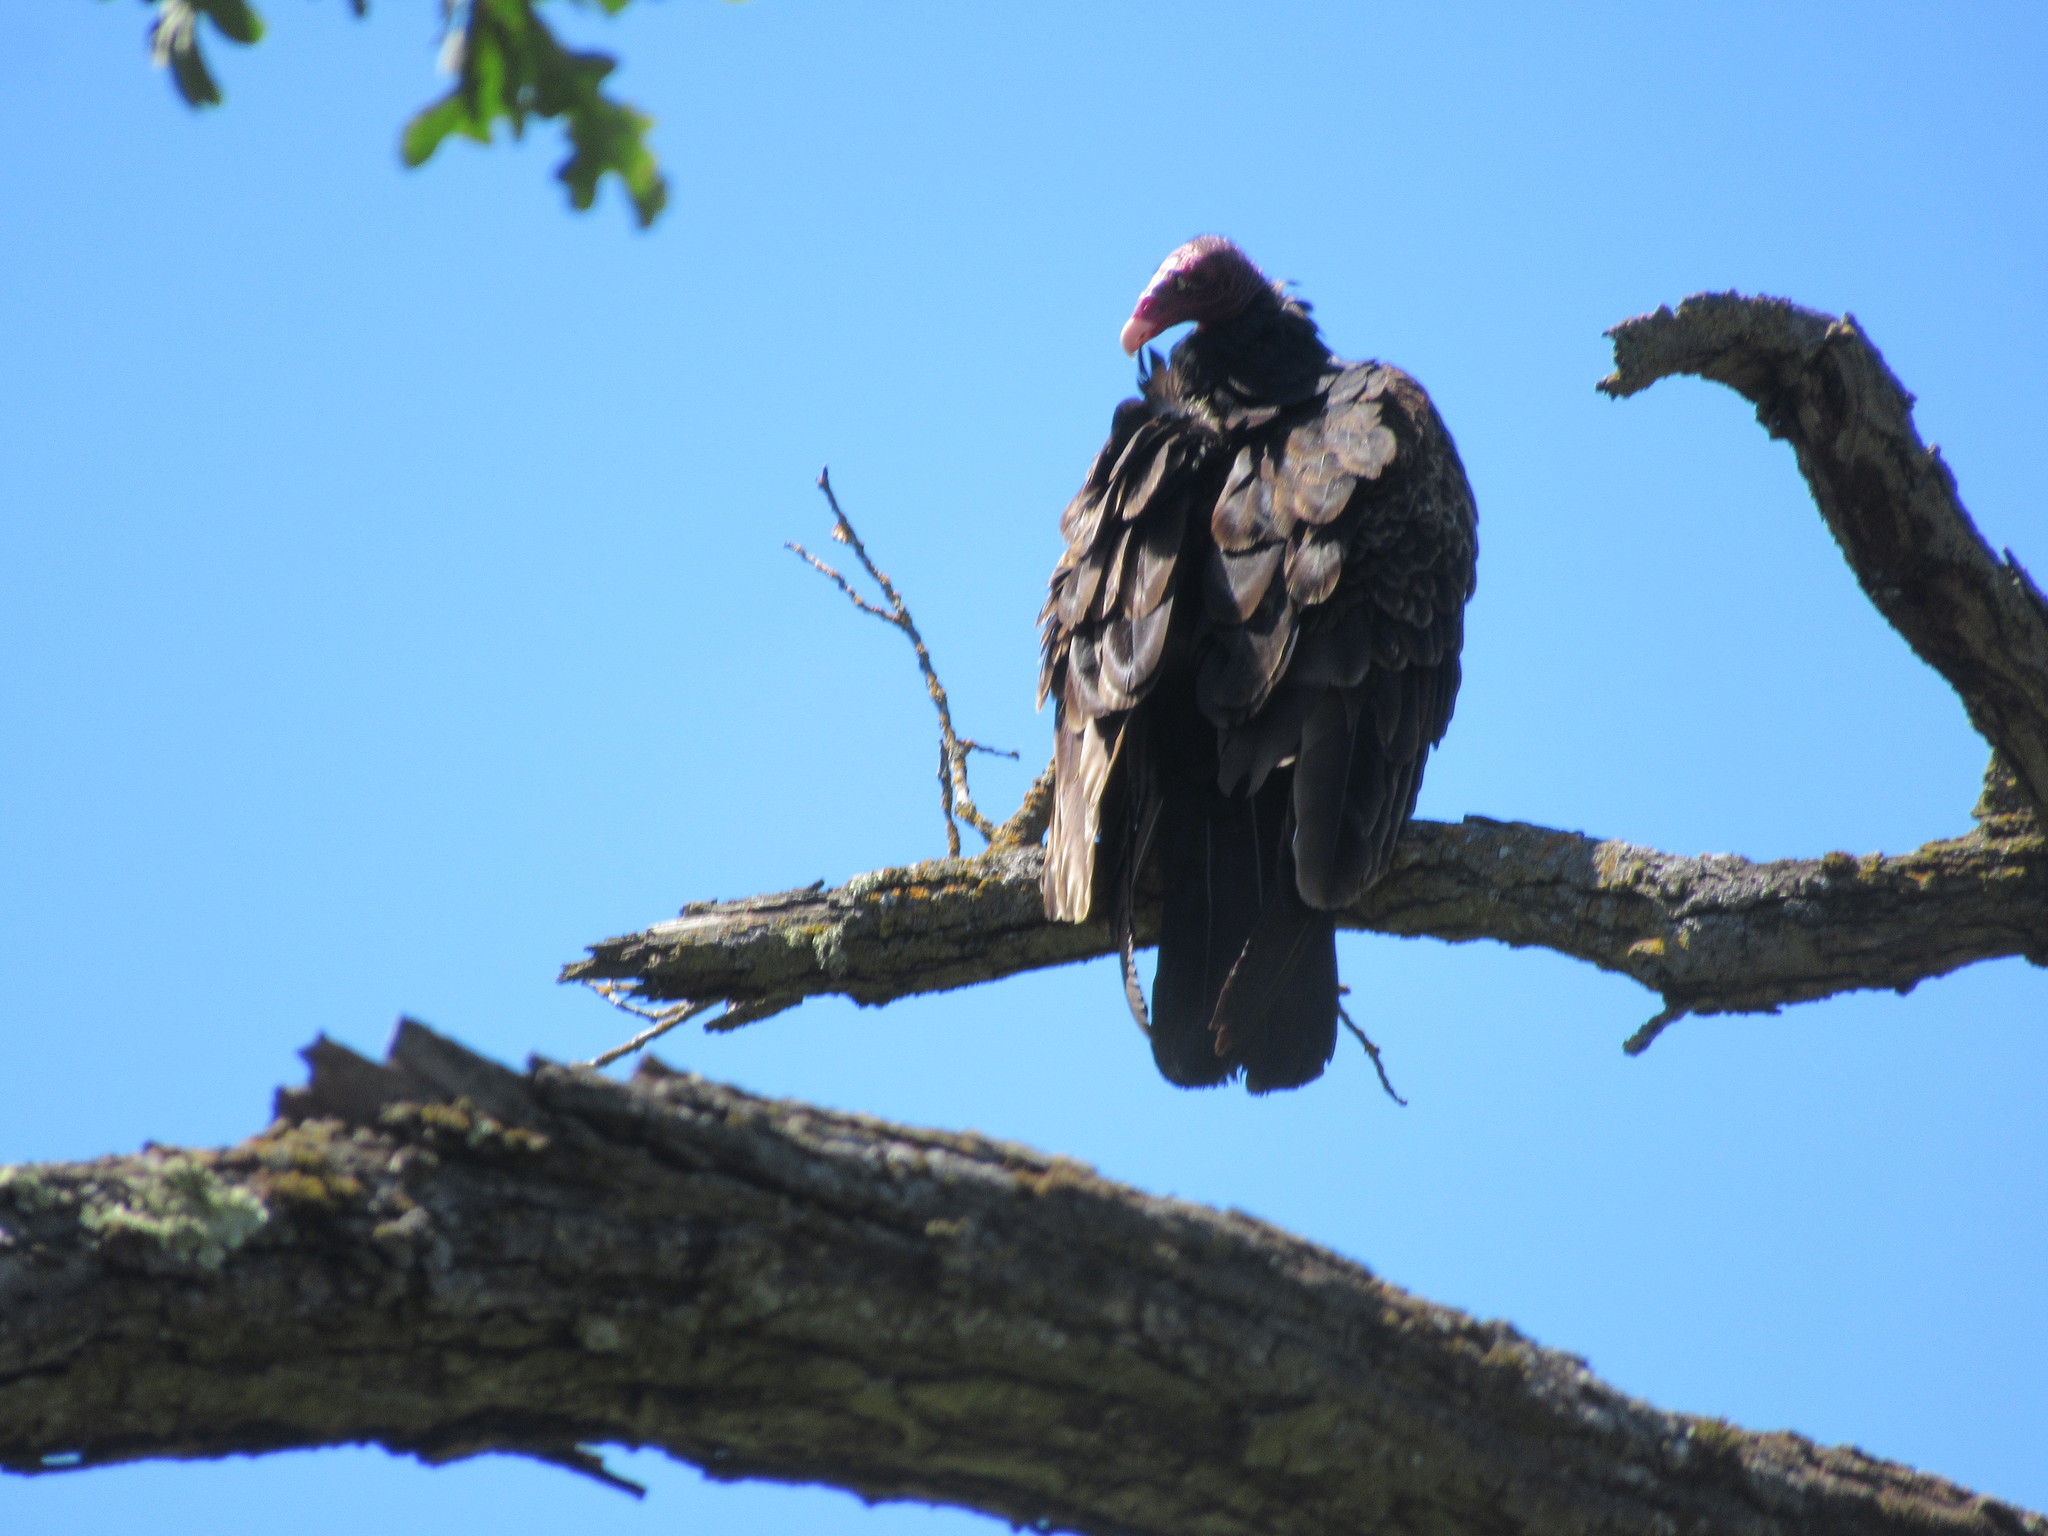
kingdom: Animalia
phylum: Chordata
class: Aves
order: Accipitriformes
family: Cathartidae
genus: Cathartes
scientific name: Cathartes aura
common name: Turkey vulture
